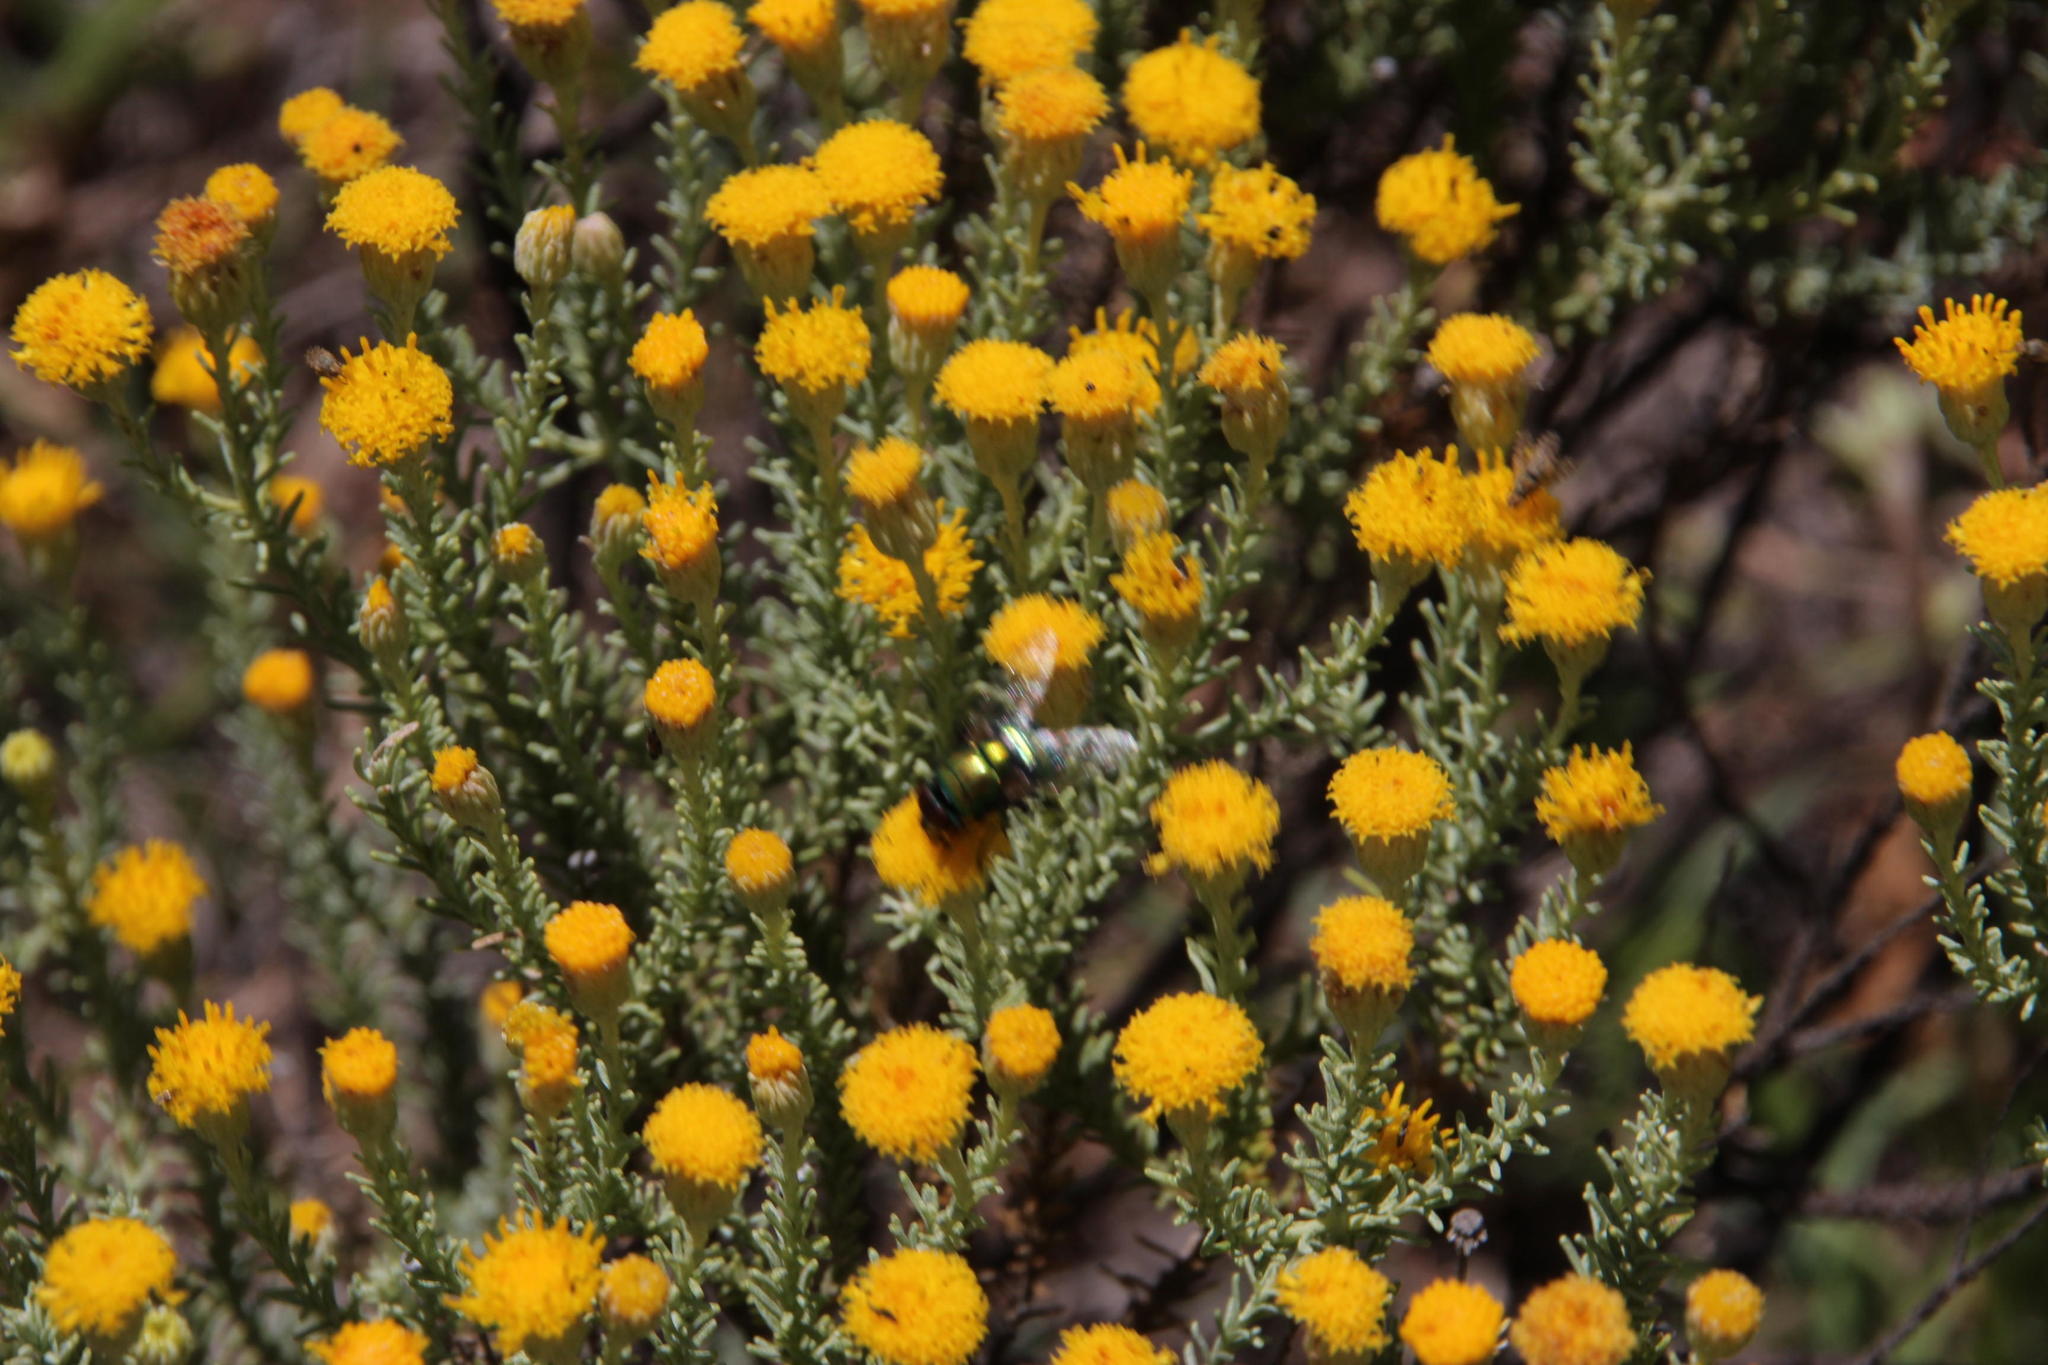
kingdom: Plantae
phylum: Tracheophyta
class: Magnoliopsida
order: Asterales
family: Asteraceae
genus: Chrysocoma
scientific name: Chrysocoma ciliata
